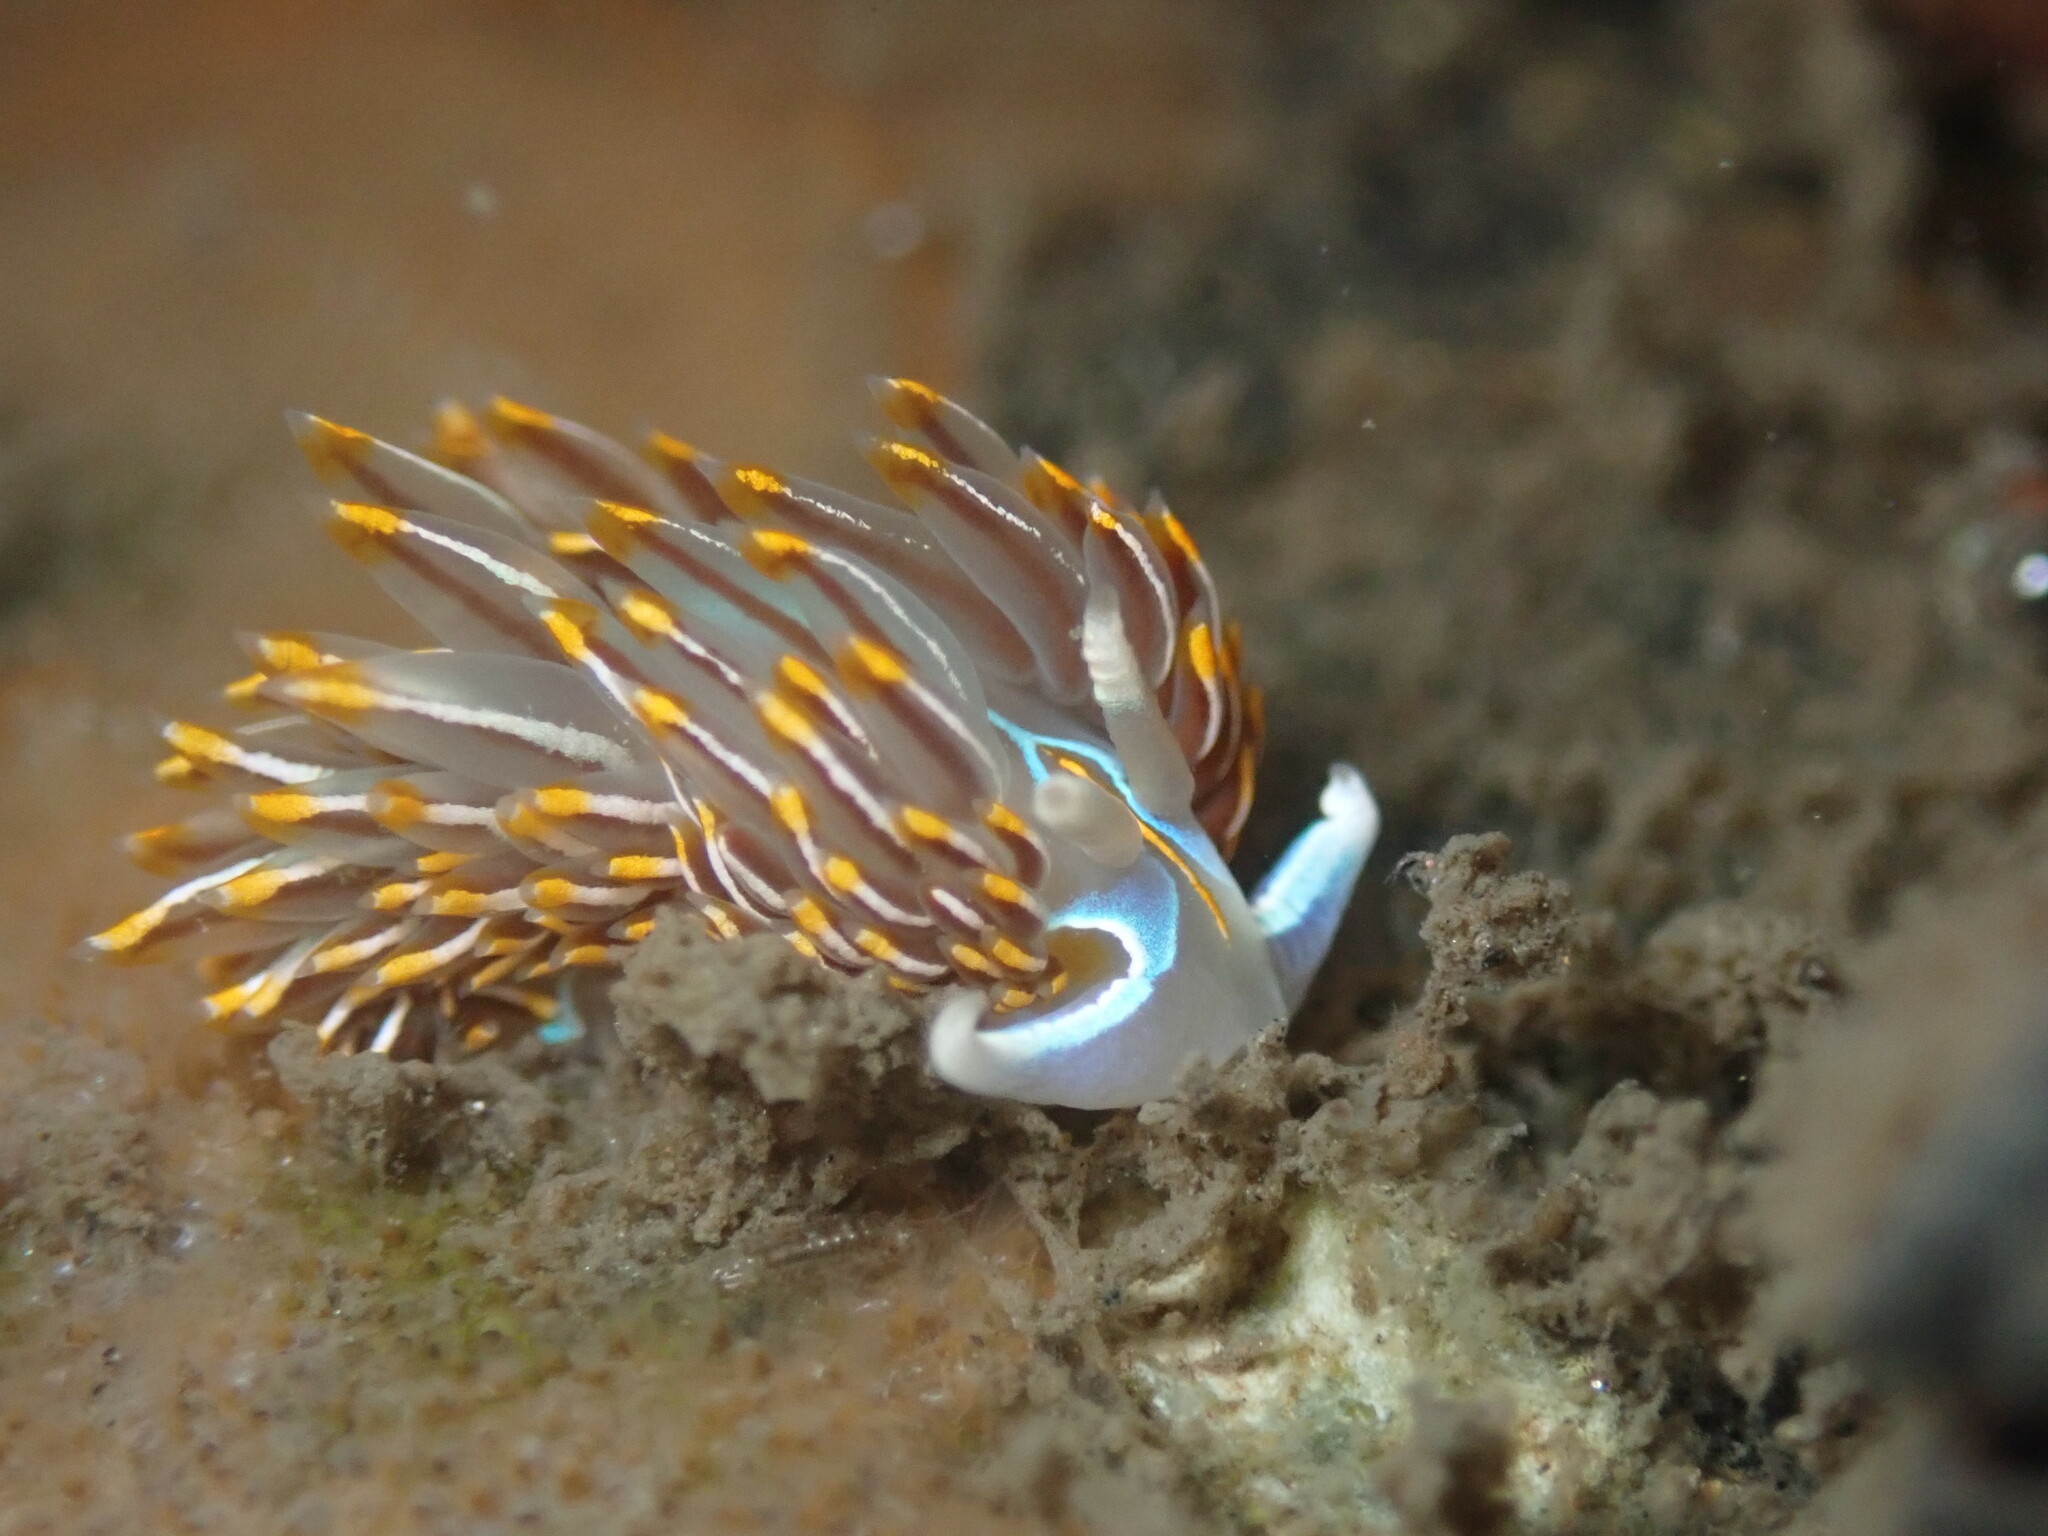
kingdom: Animalia
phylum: Mollusca
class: Gastropoda
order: Nudibranchia
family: Myrrhinidae
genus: Hermissenda
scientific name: Hermissenda crassicornis
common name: Hermissenda
